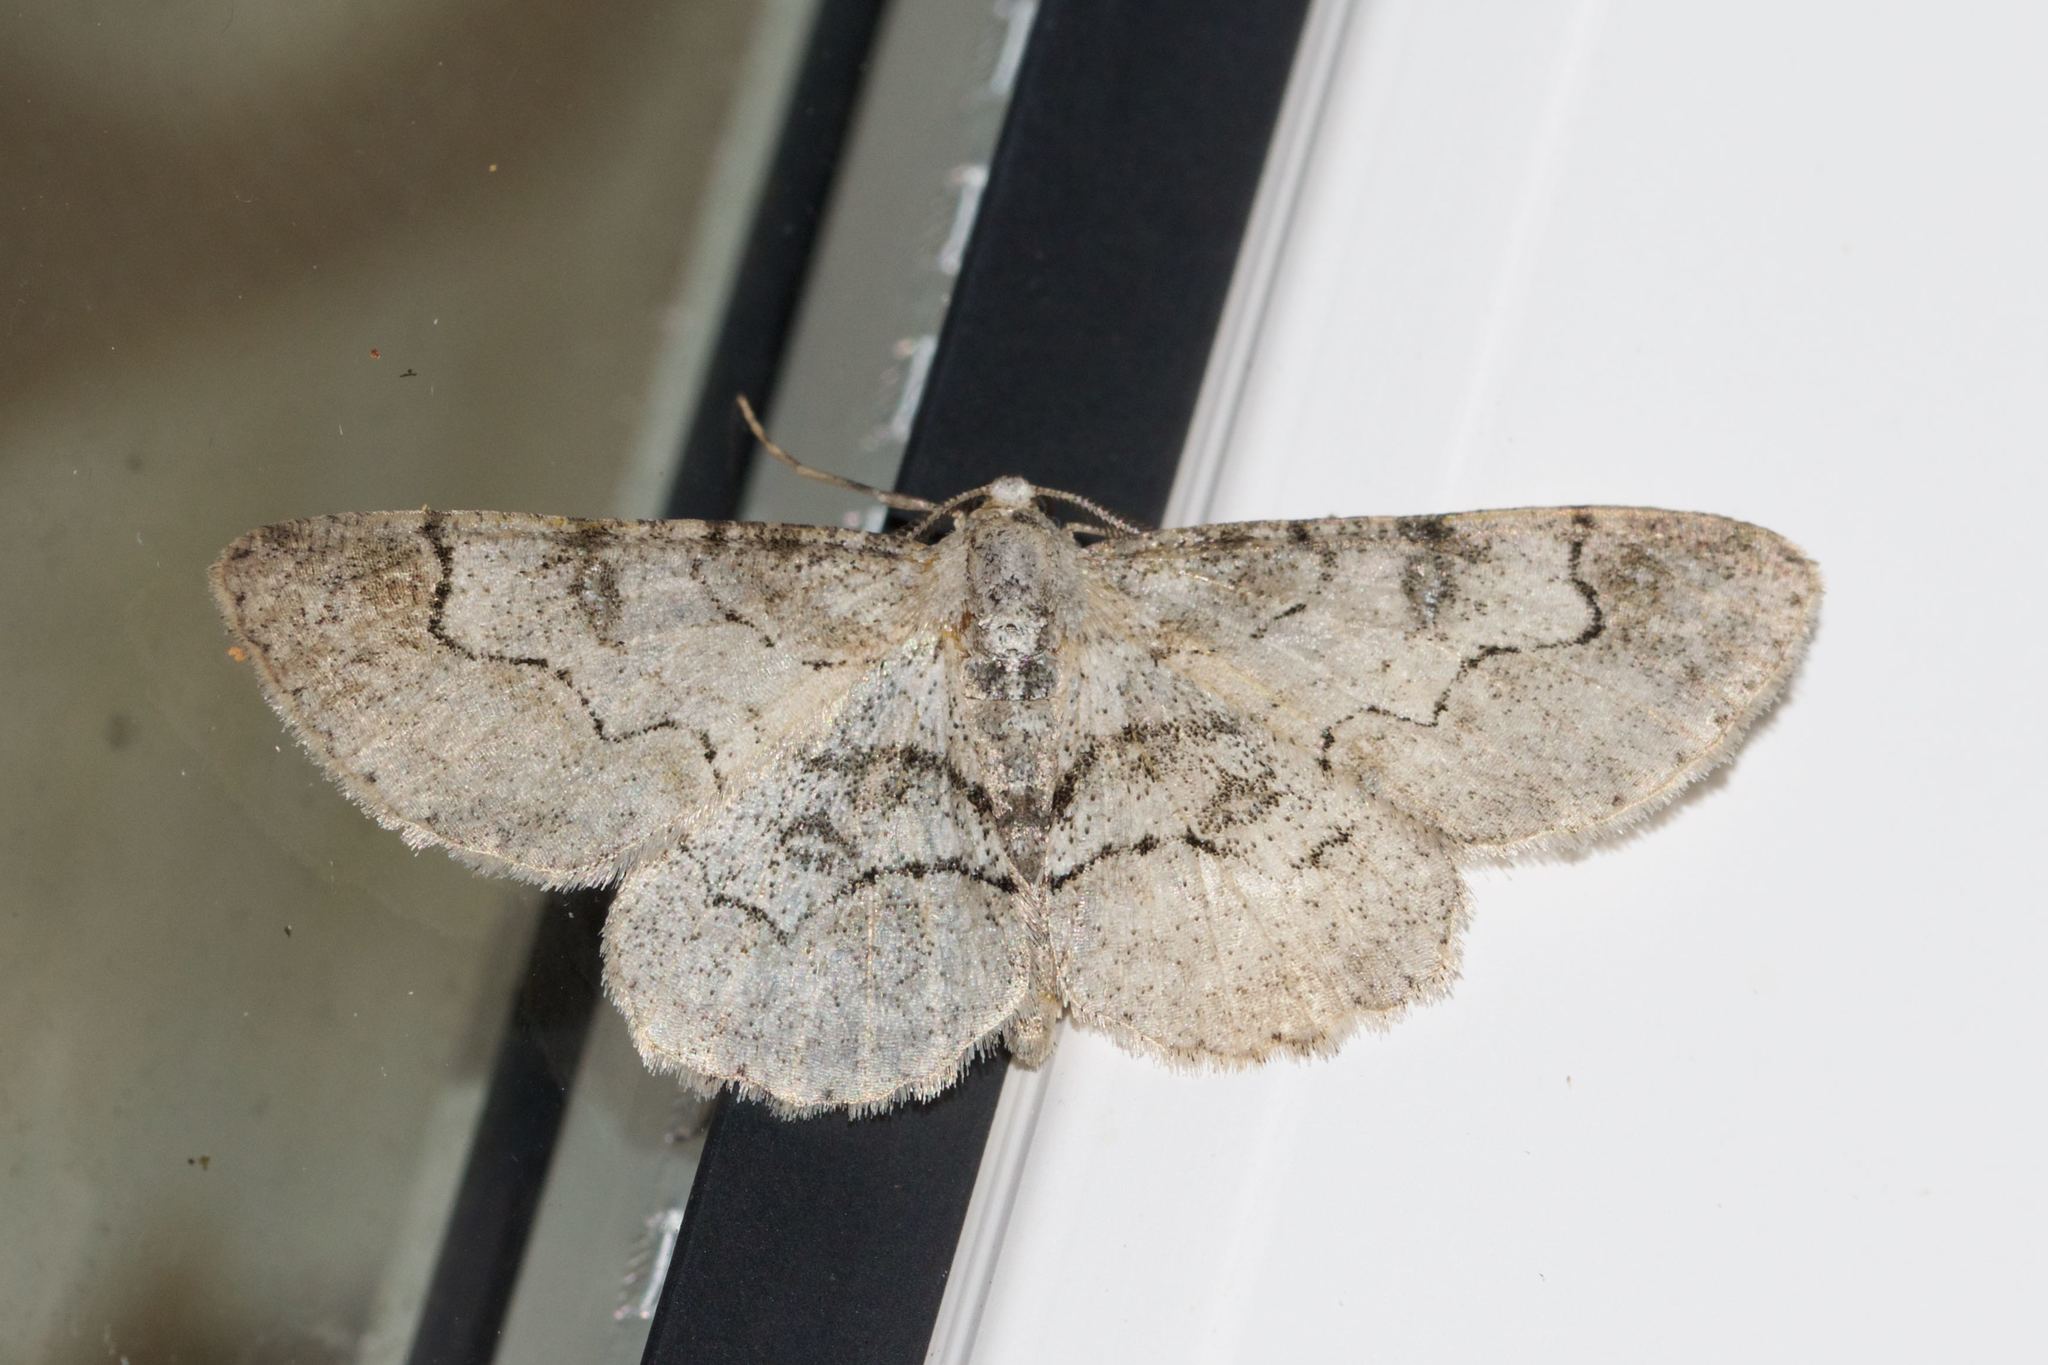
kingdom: Animalia
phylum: Arthropoda
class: Insecta
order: Lepidoptera
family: Geometridae
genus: Iridopsis
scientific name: Iridopsis larvaria
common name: Bent-line gray
